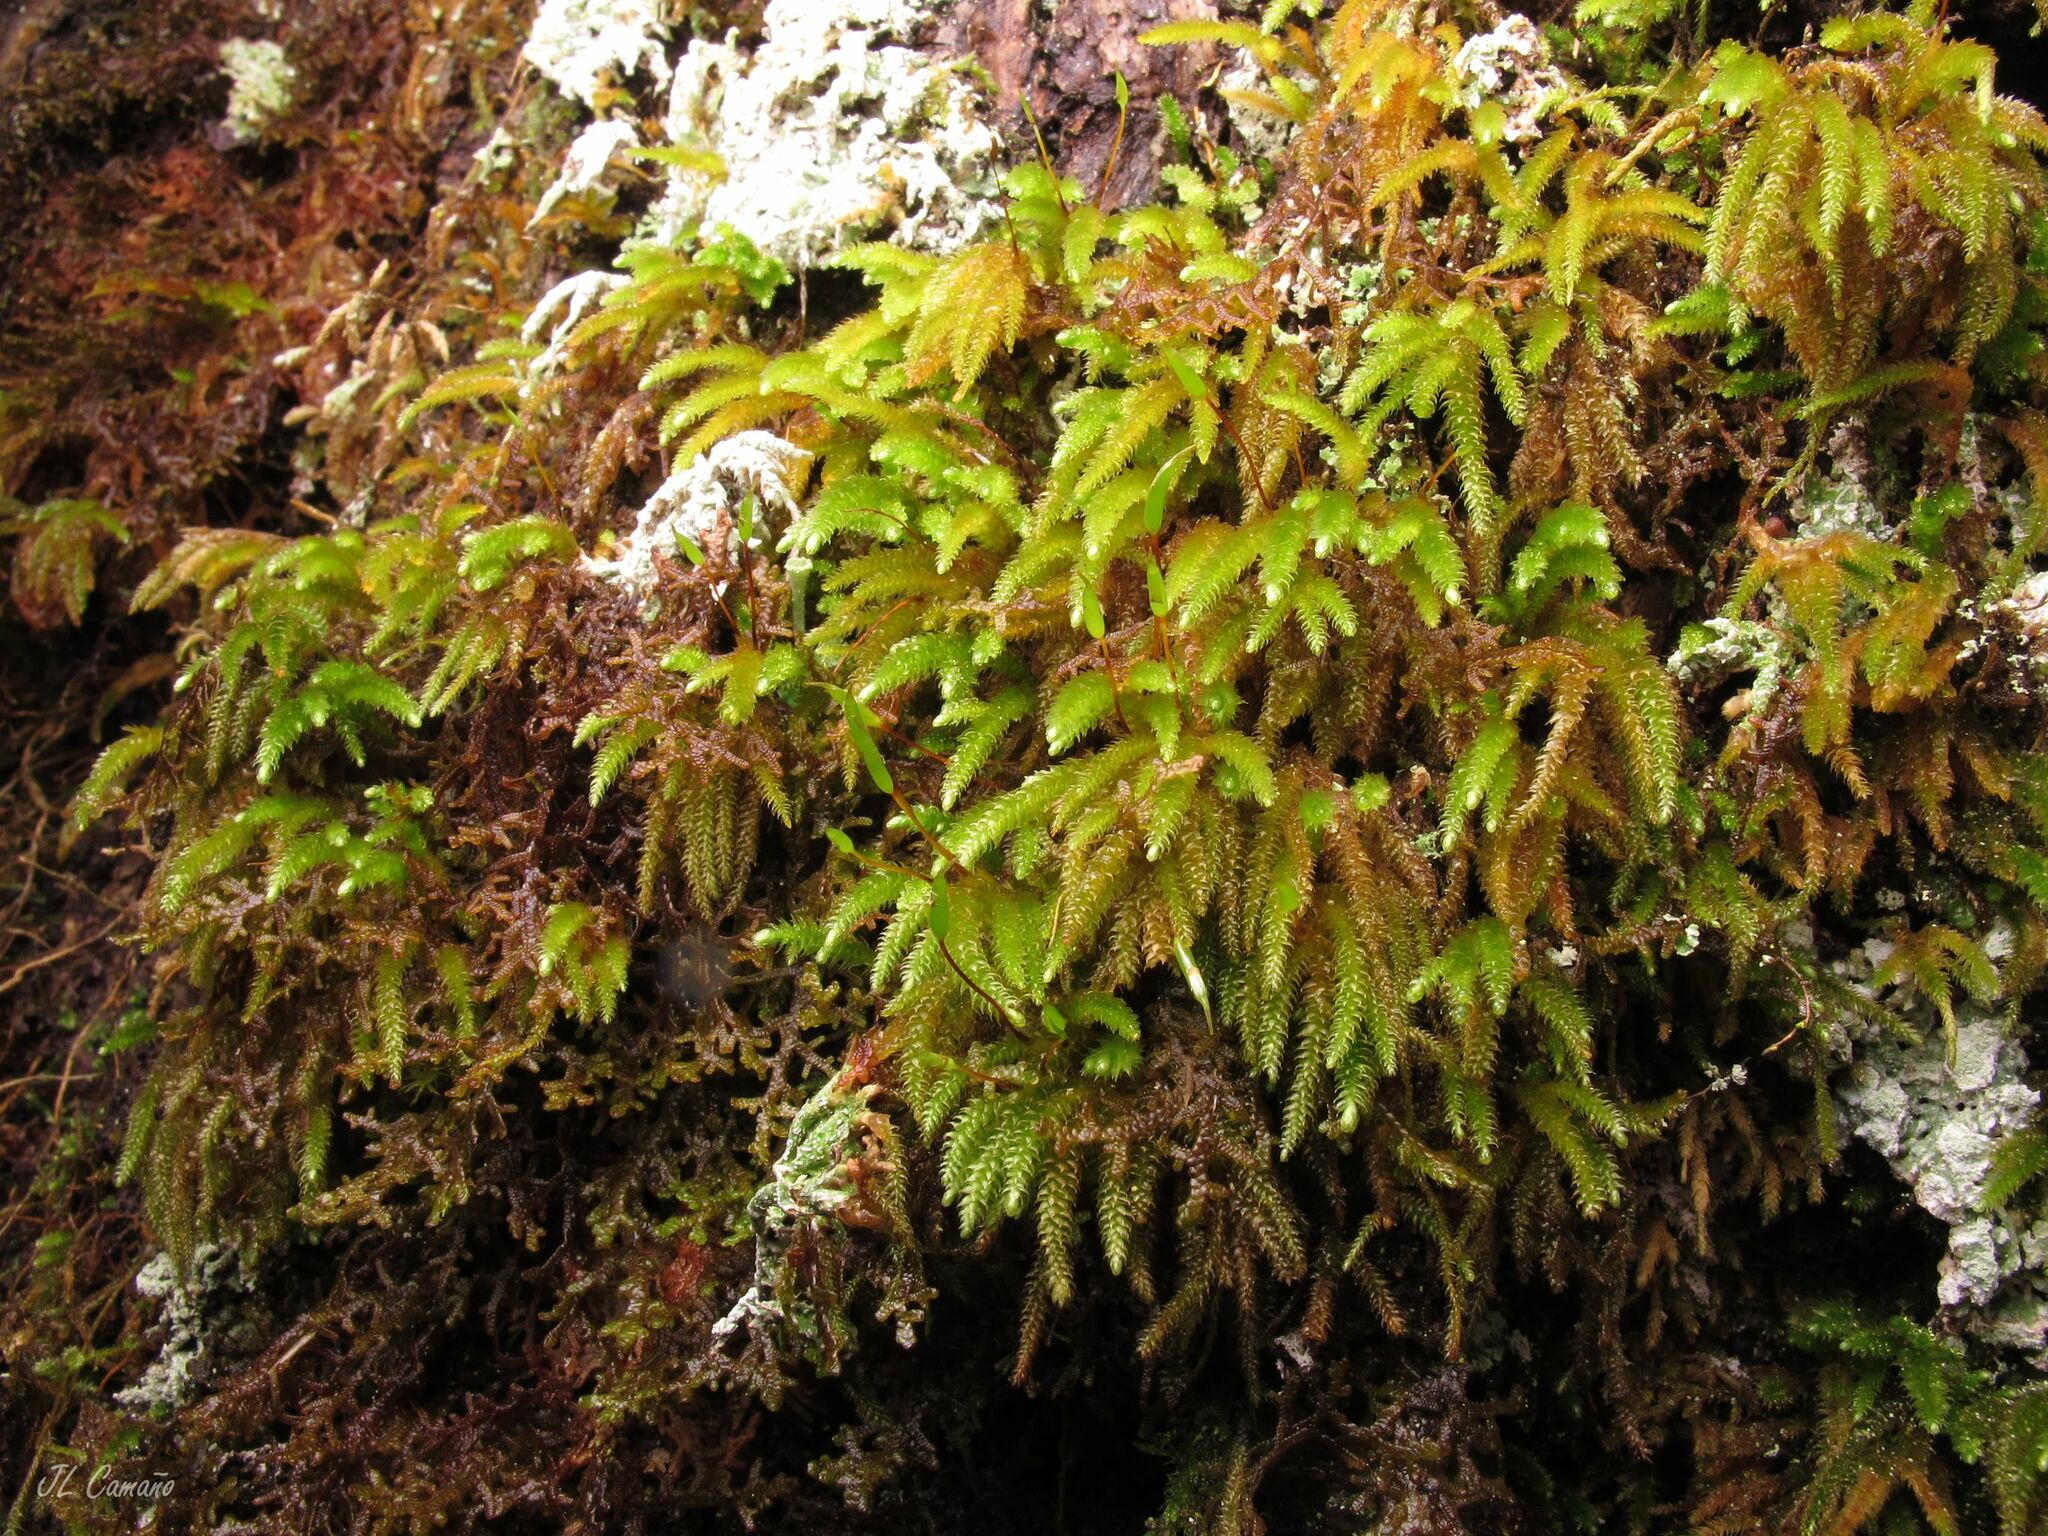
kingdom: Plantae
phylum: Bryophyta
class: Bryopsida
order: Hypnales
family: Lembophyllaceae
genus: Nogopterium
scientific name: Nogopterium gracile
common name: Bird's-foot wing-moss
